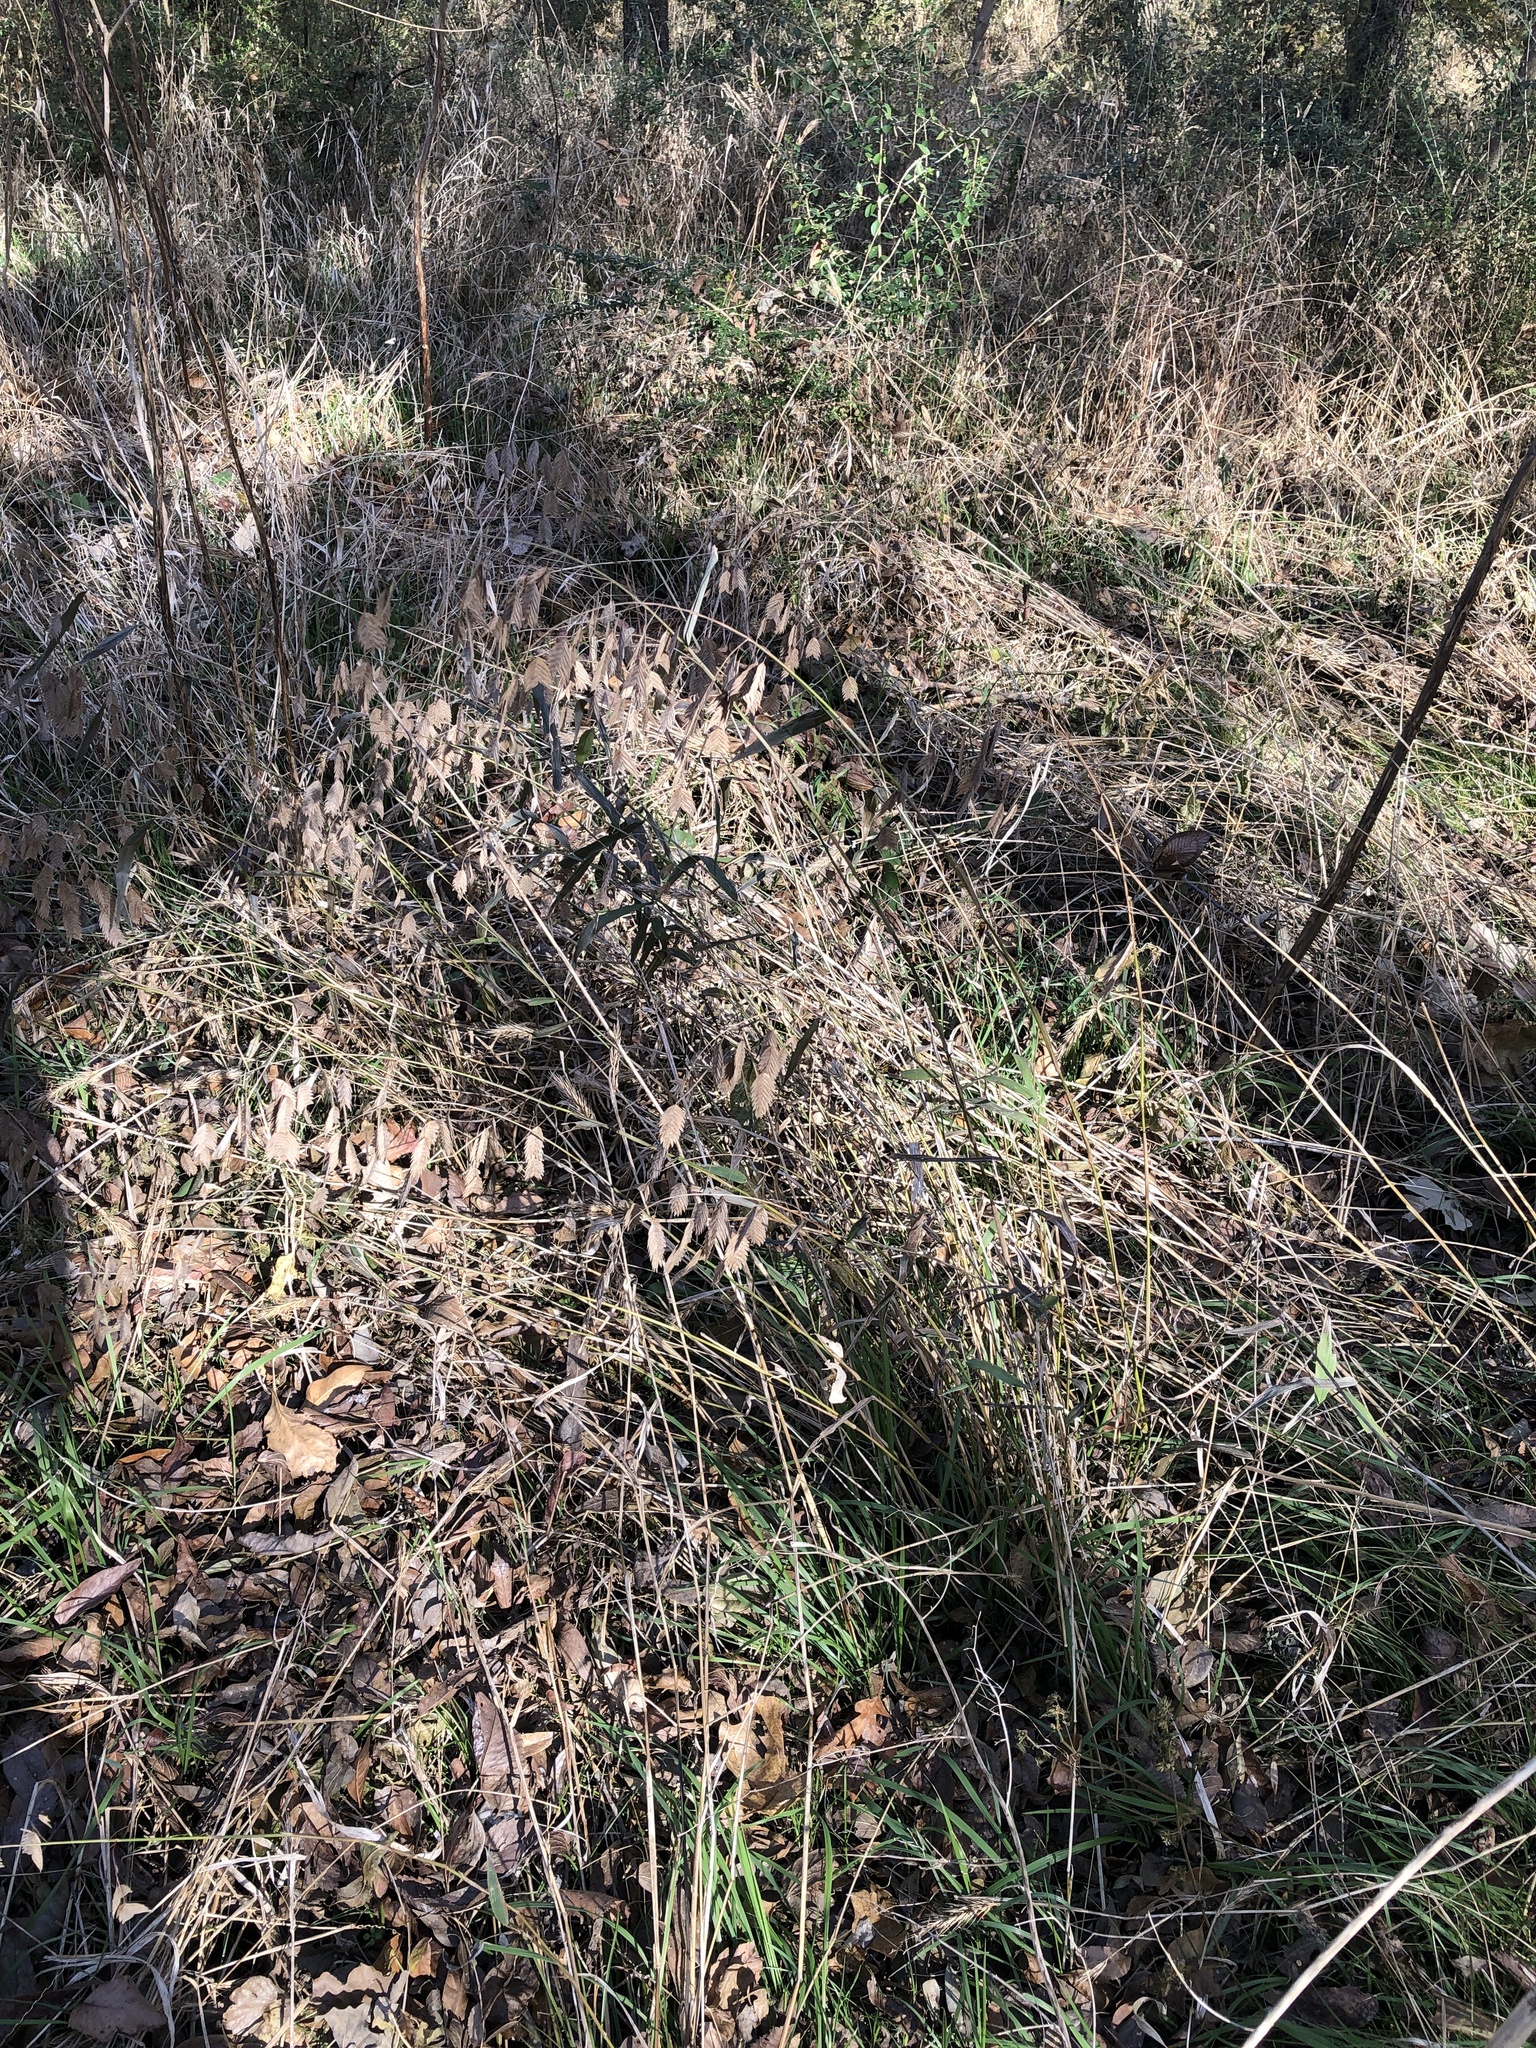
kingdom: Plantae
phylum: Tracheophyta
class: Liliopsida
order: Poales
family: Poaceae
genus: Chasmanthium
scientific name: Chasmanthium latifolium
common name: Broad-leaved chasmanthium
